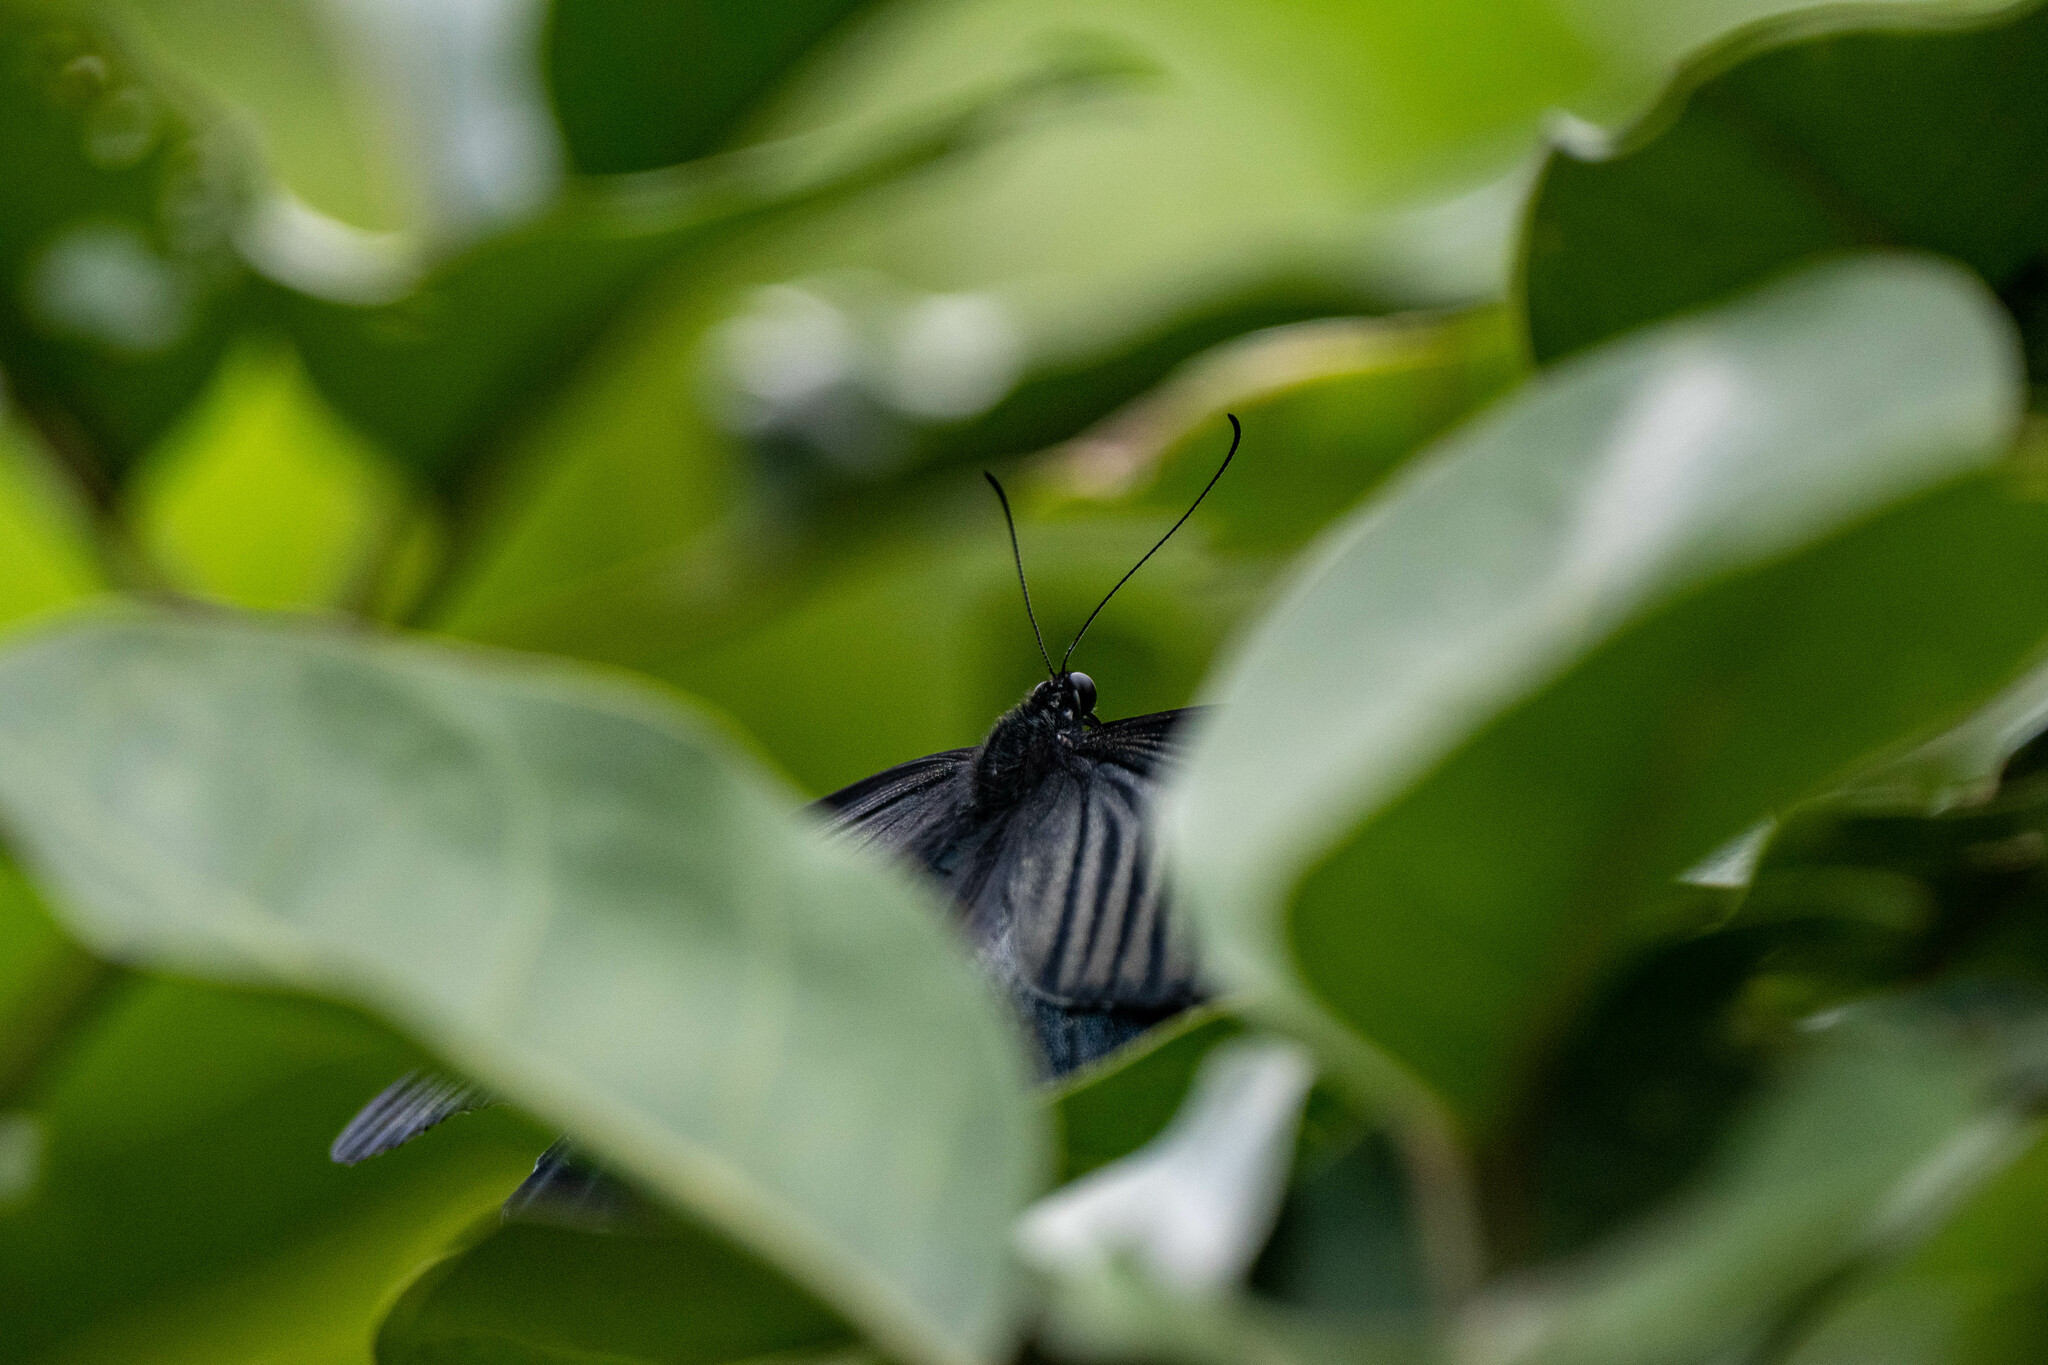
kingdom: Animalia
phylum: Arthropoda
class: Insecta
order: Lepidoptera
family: Papilionidae
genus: Papilio
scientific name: Papilio protenor
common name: Spangle
